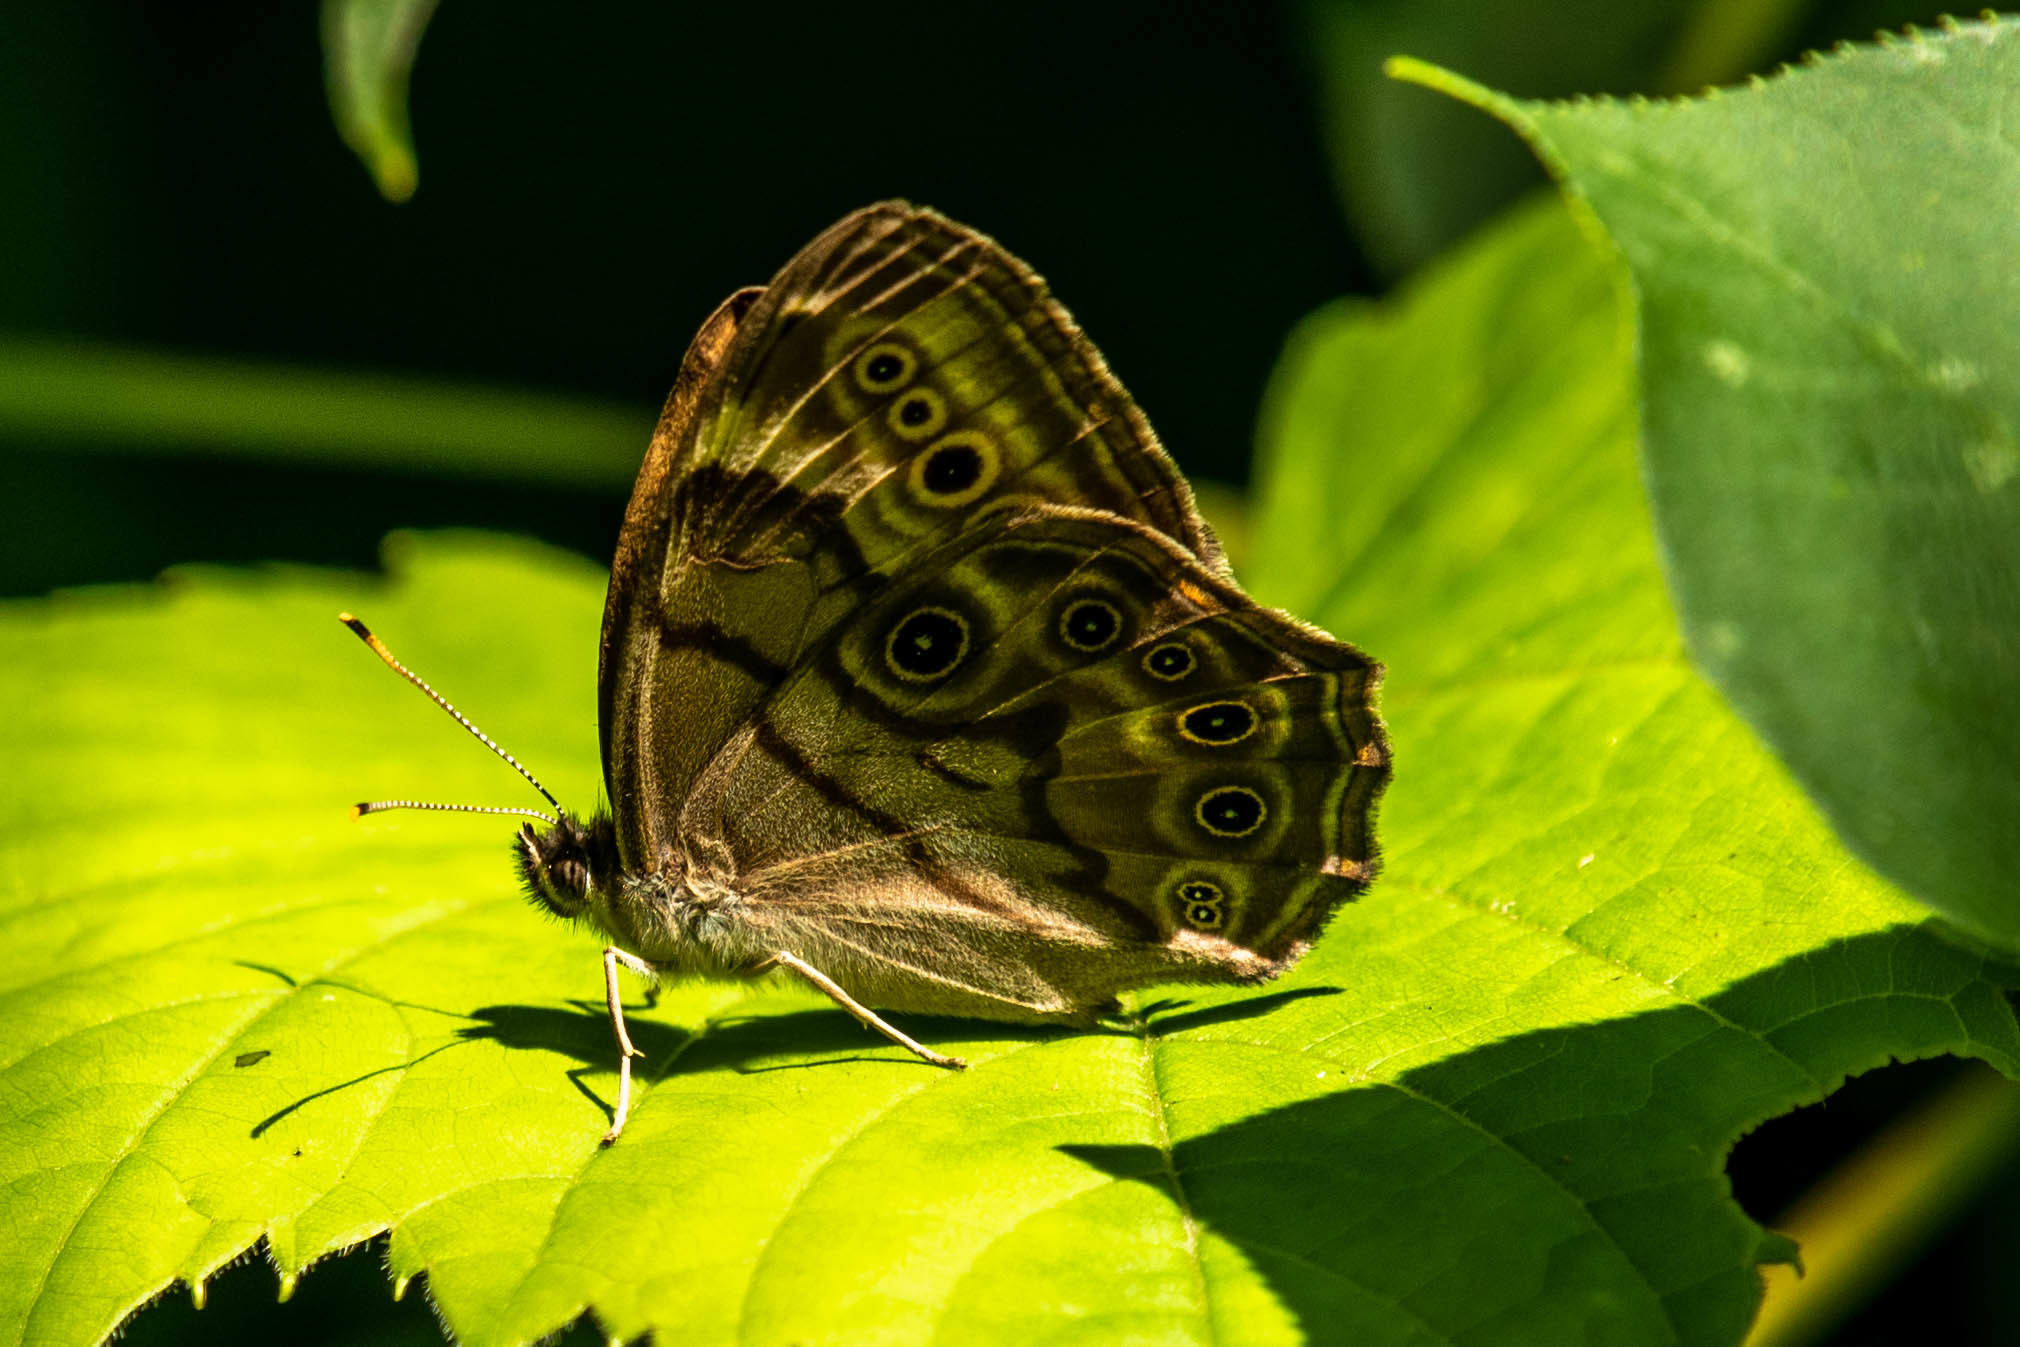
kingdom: Animalia
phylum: Arthropoda
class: Insecta
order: Lepidoptera
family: Nymphalidae
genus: Lethe
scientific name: Lethe anthedon
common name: Northern pearly-eye
